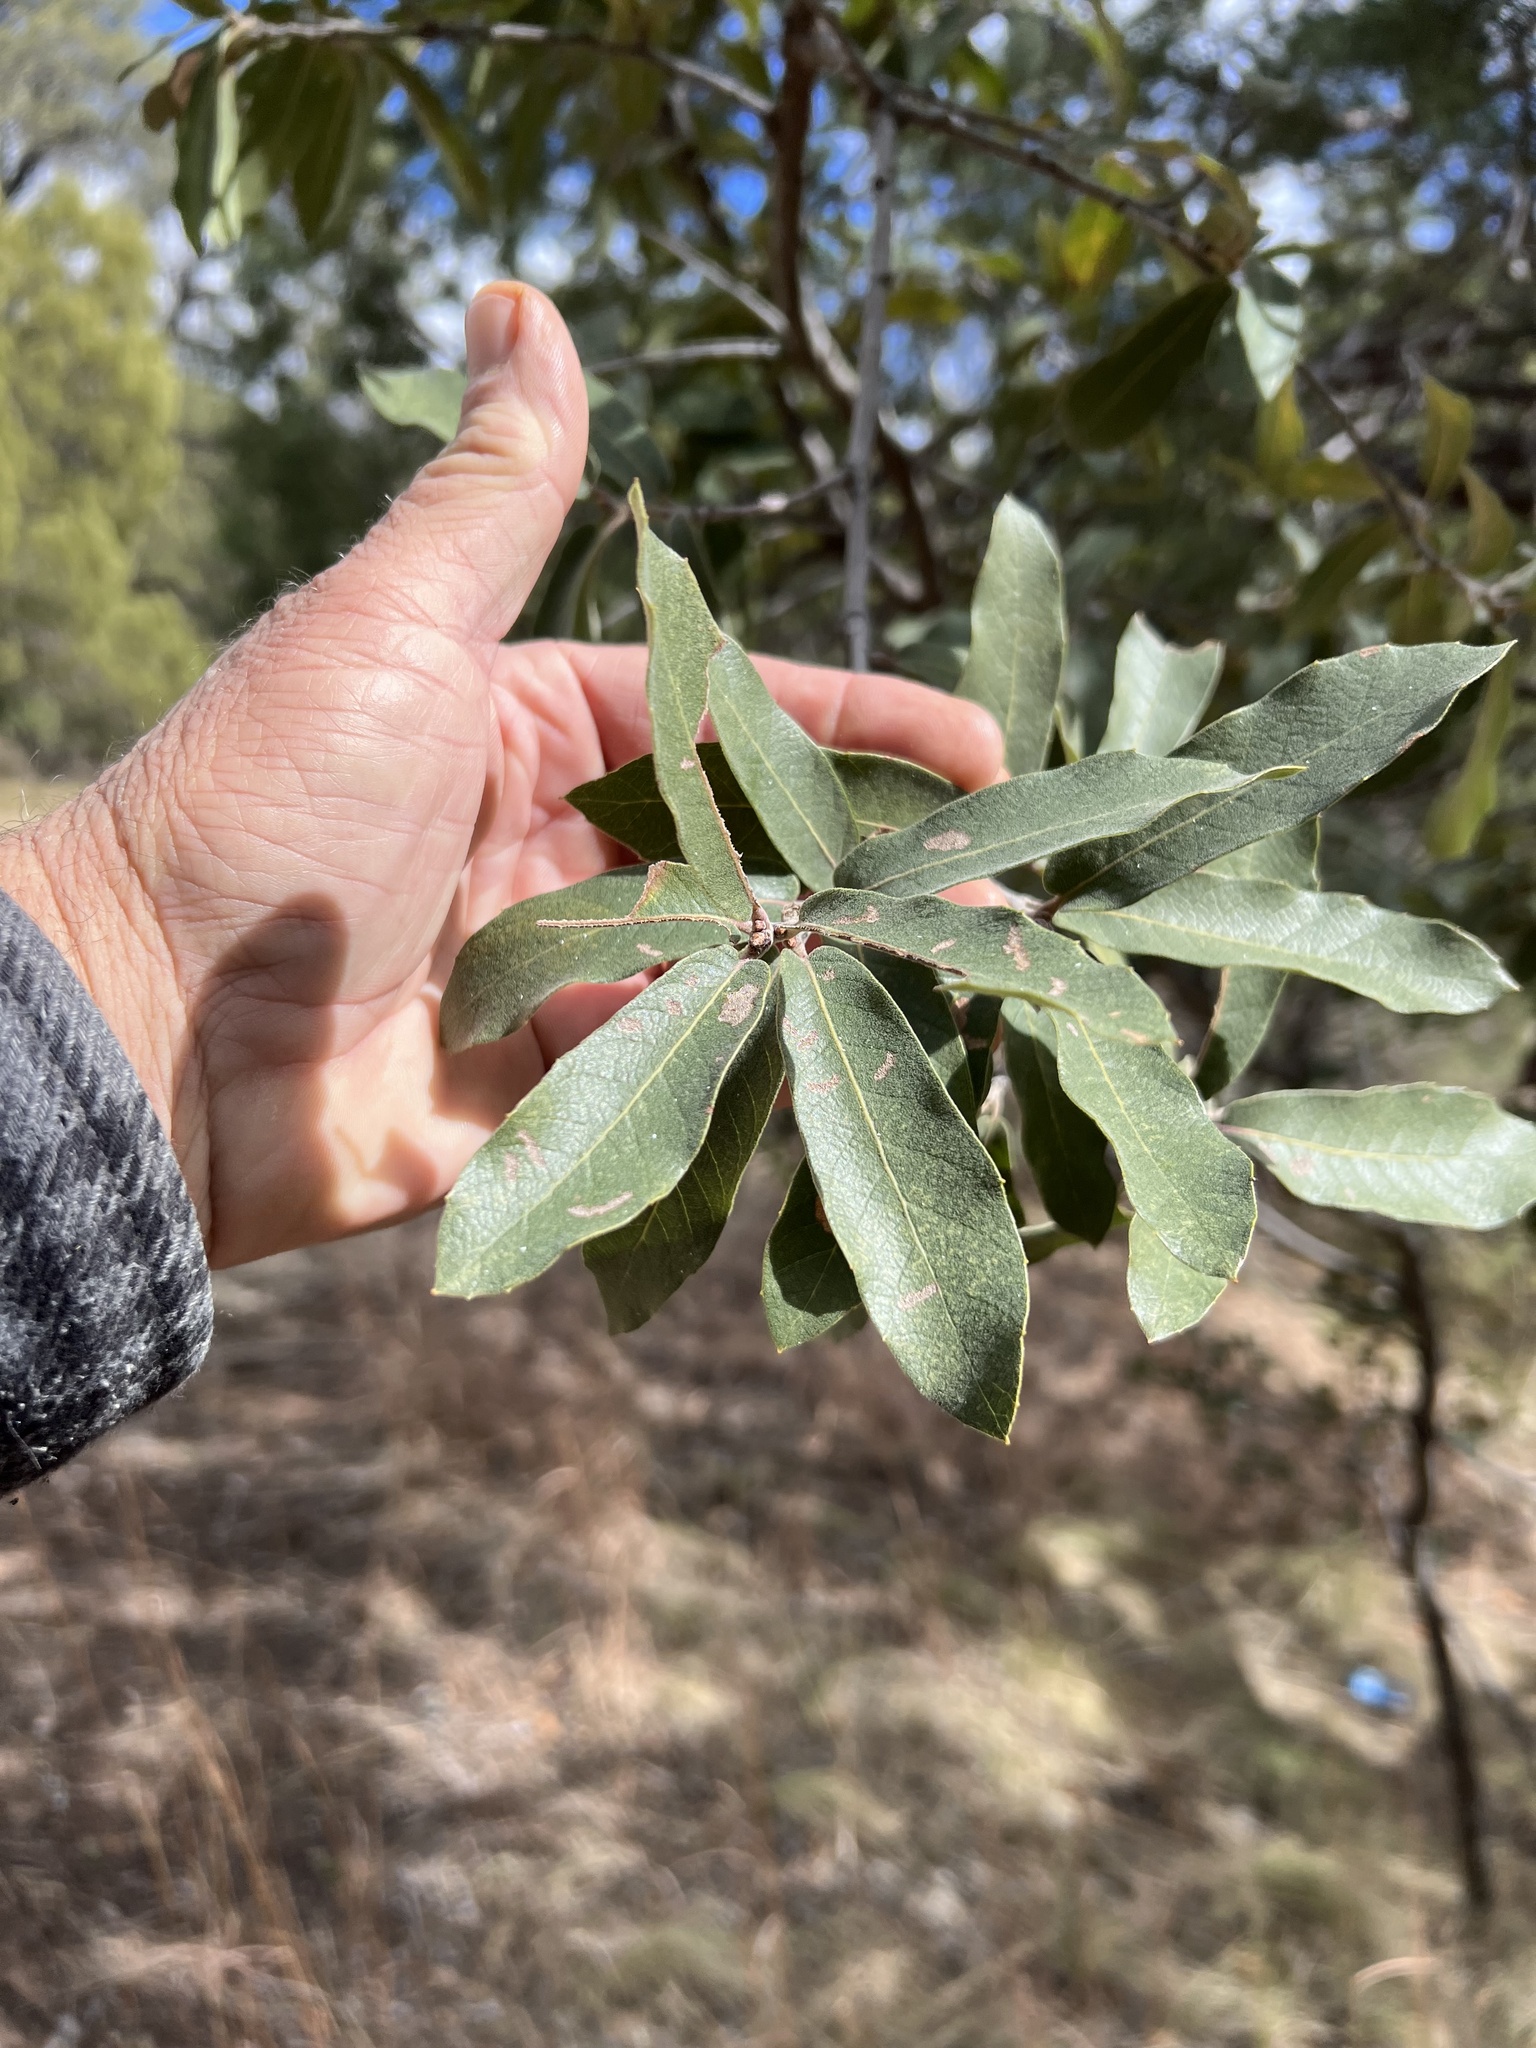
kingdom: Plantae
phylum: Tracheophyta
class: Magnoliopsida
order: Fagales
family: Fagaceae
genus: Quercus
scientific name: Quercus arizonica
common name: Arizona white oak
